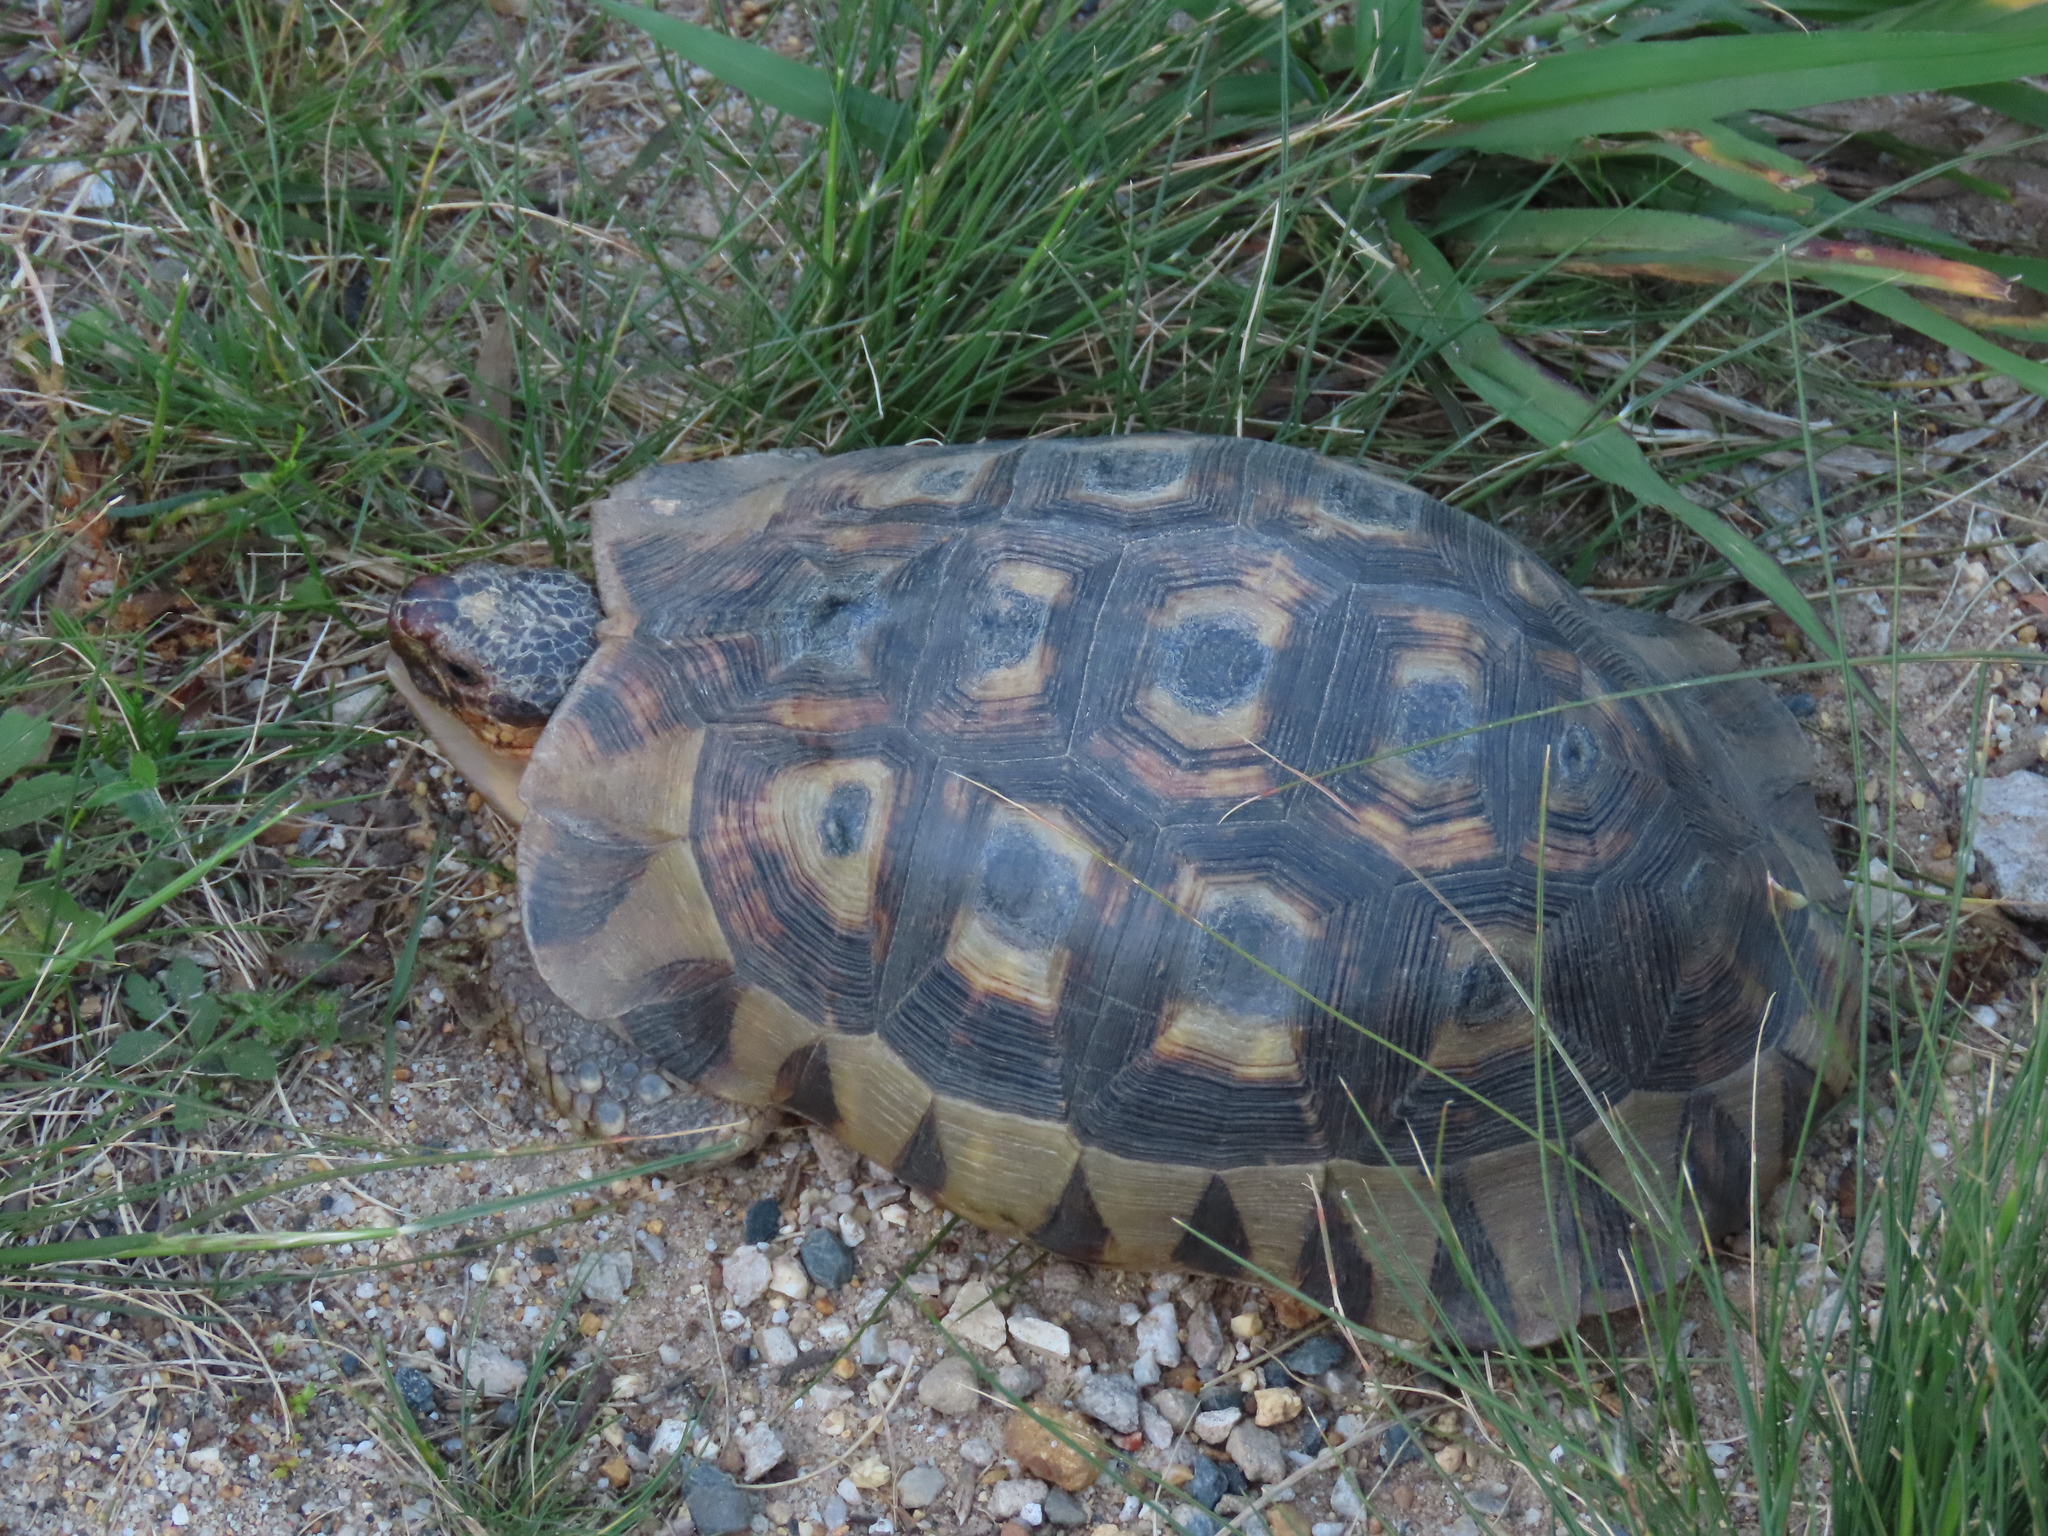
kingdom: Animalia
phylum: Chordata
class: Testudines
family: Testudinidae
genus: Chersina
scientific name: Chersina angulata
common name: South african bowsprit tortoise
